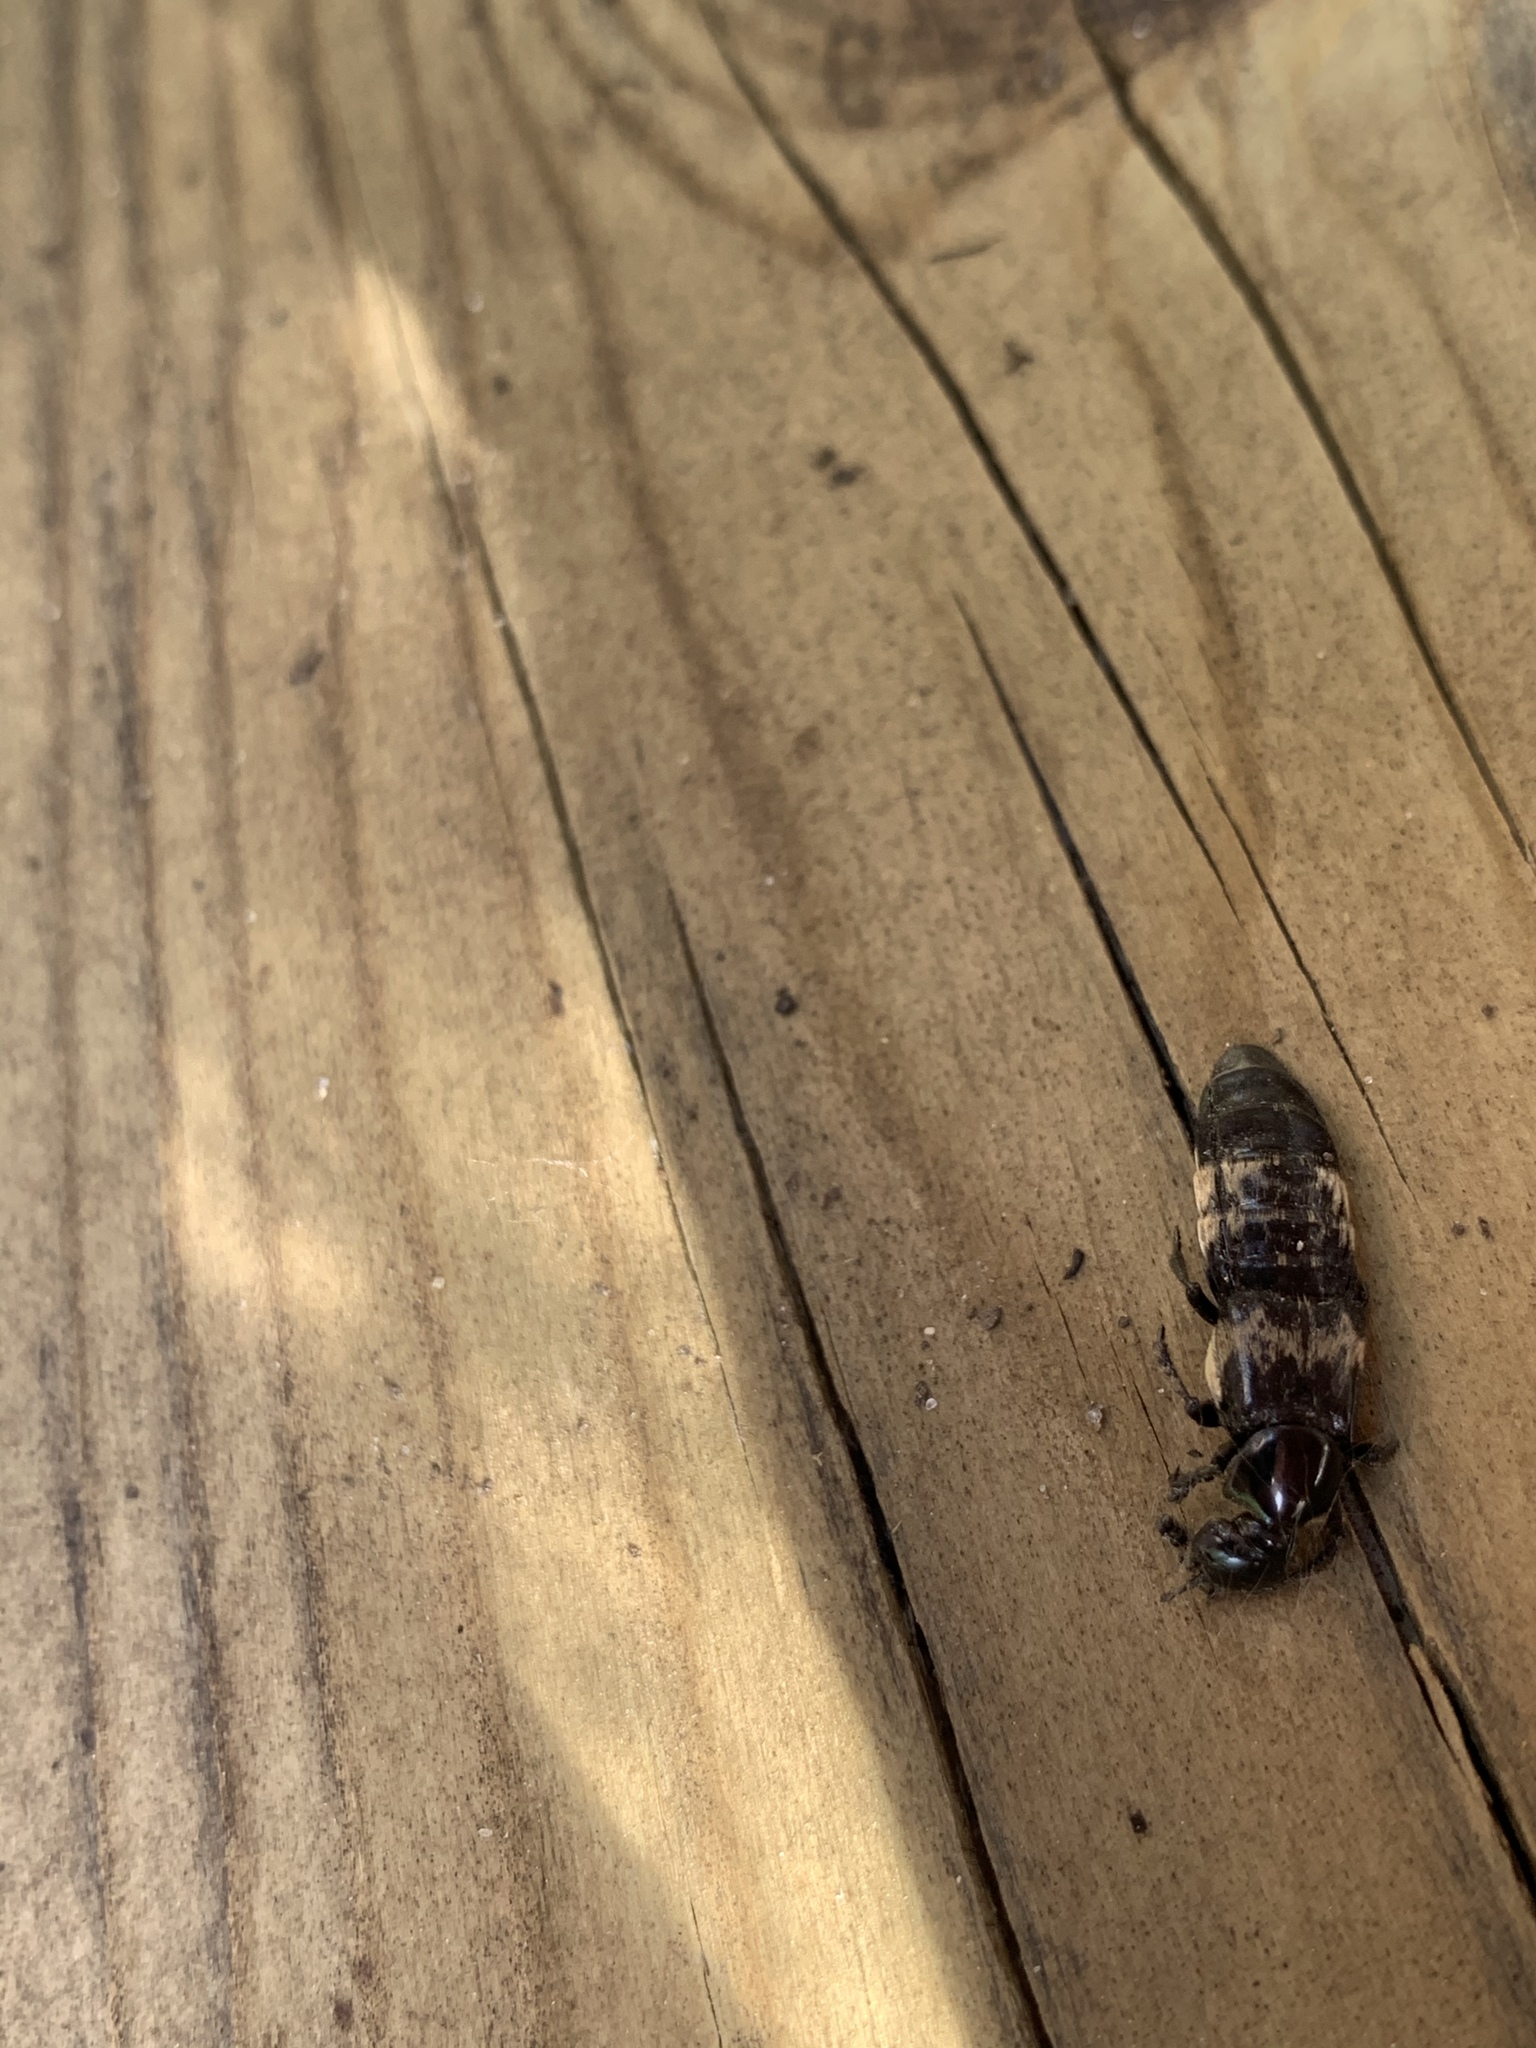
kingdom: Animalia
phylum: Arthropoda
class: Insecta
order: Coleoptera
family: Staphylinidae
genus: Creophilus
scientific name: Creophilus maxillosus
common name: Hairy rove beetle
